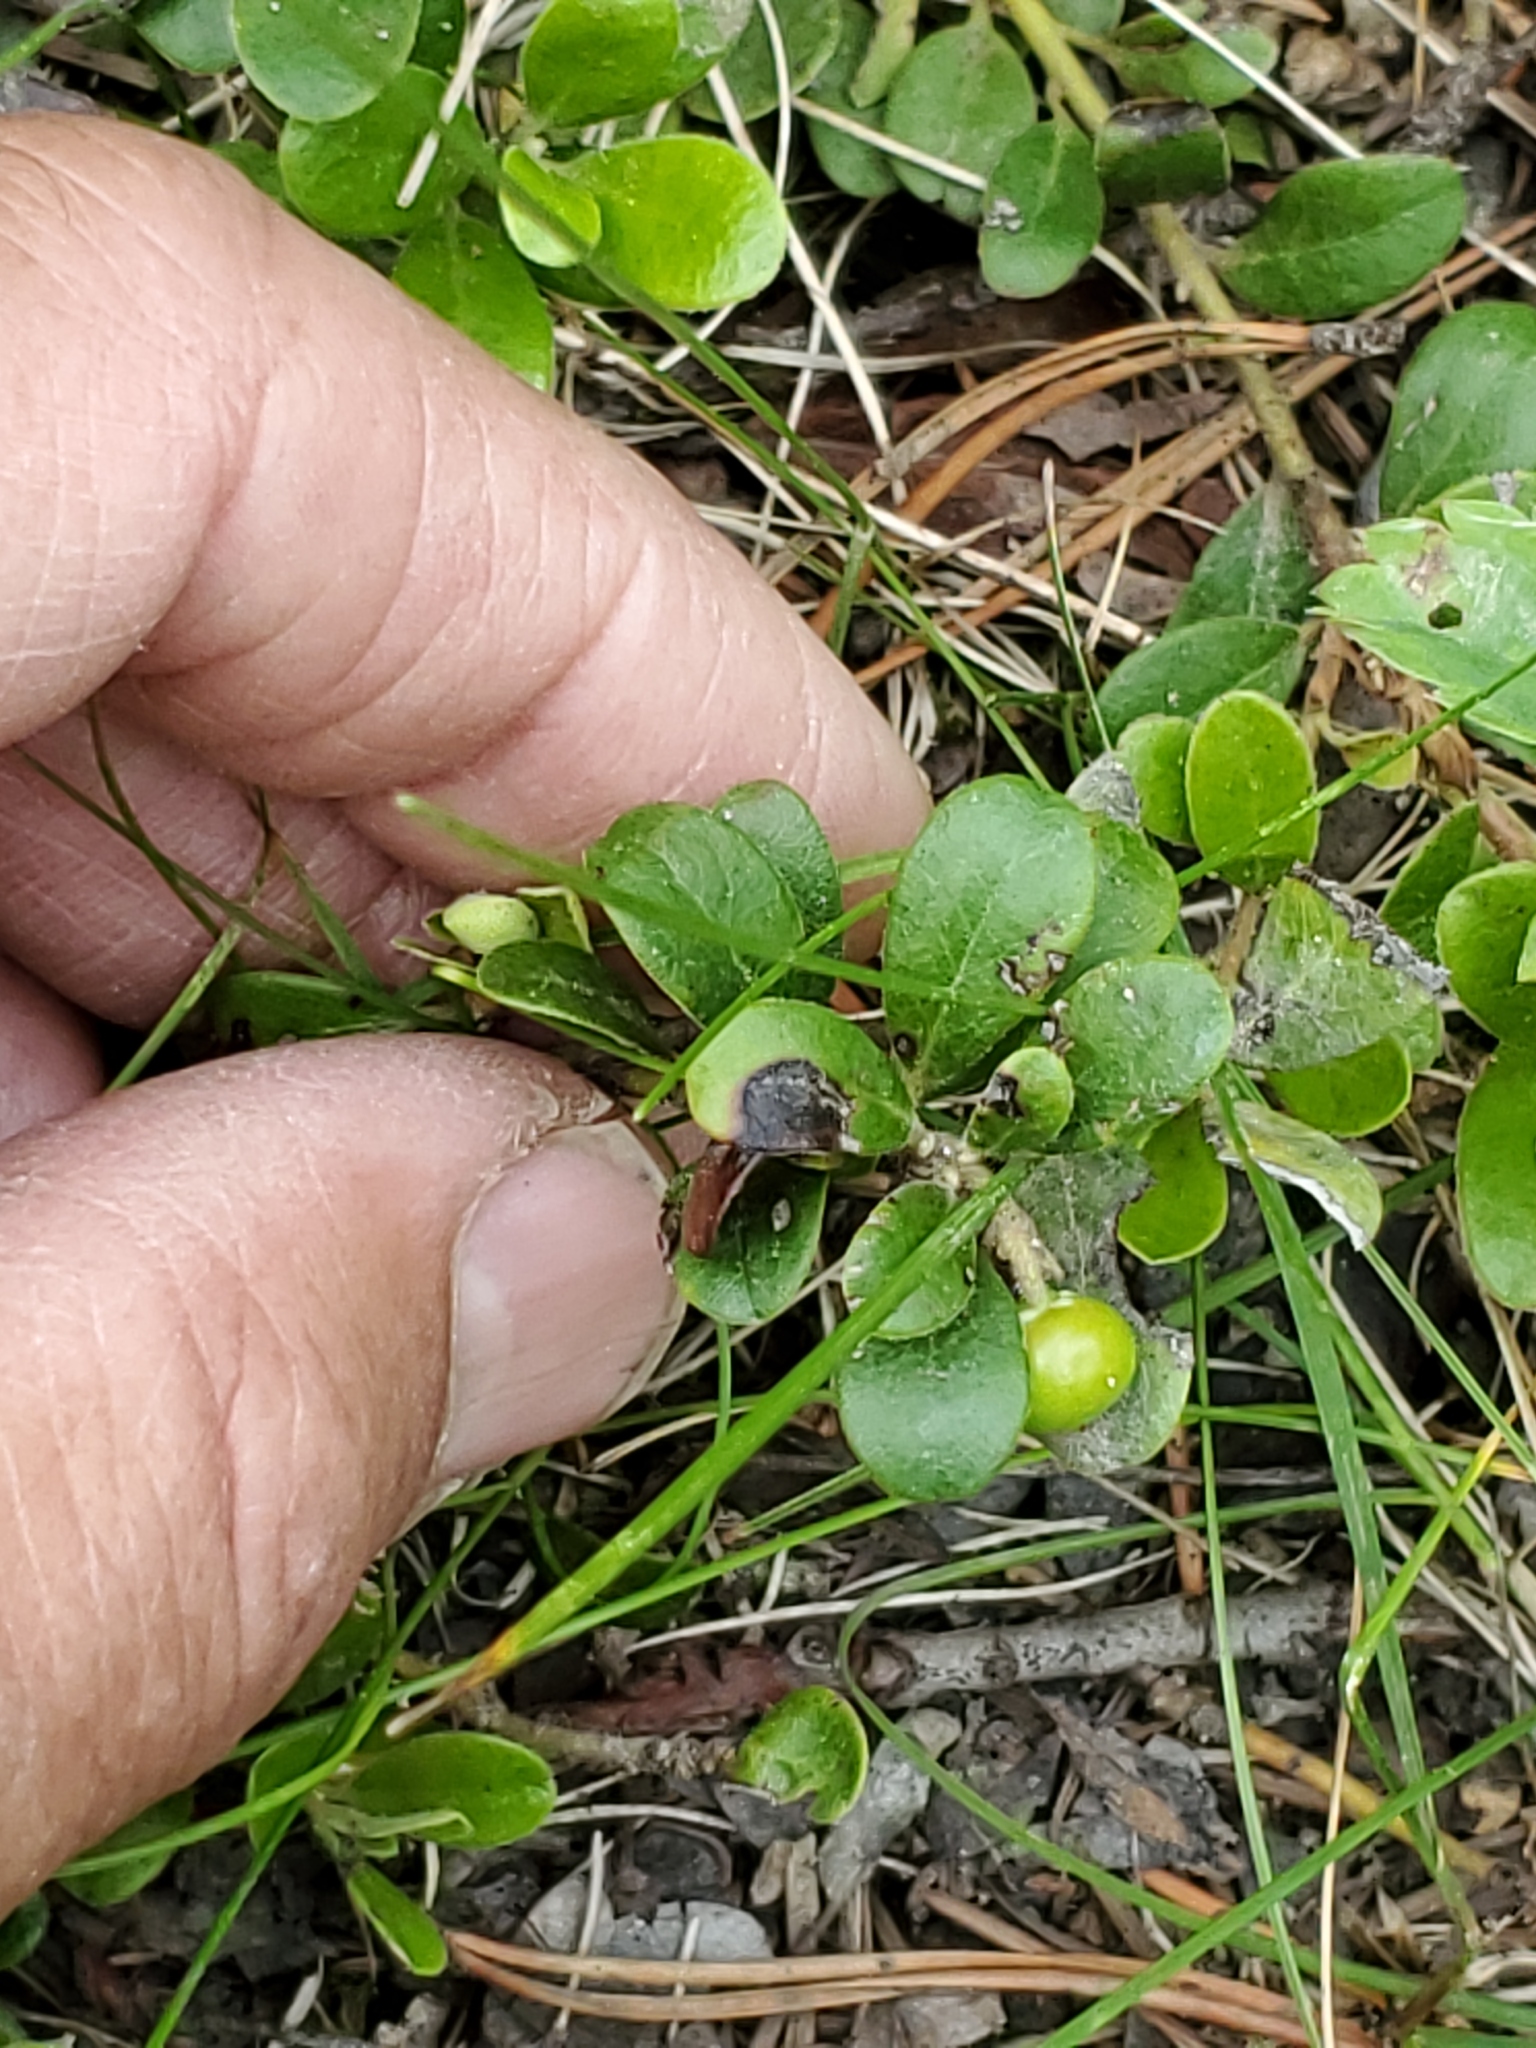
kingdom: Plantae
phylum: Tracheophyta
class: Magnoliopsida
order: Ericales
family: Ericaceae
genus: Arctostaphylos
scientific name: Arctostaphylos uva-ursi
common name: Bearberry
